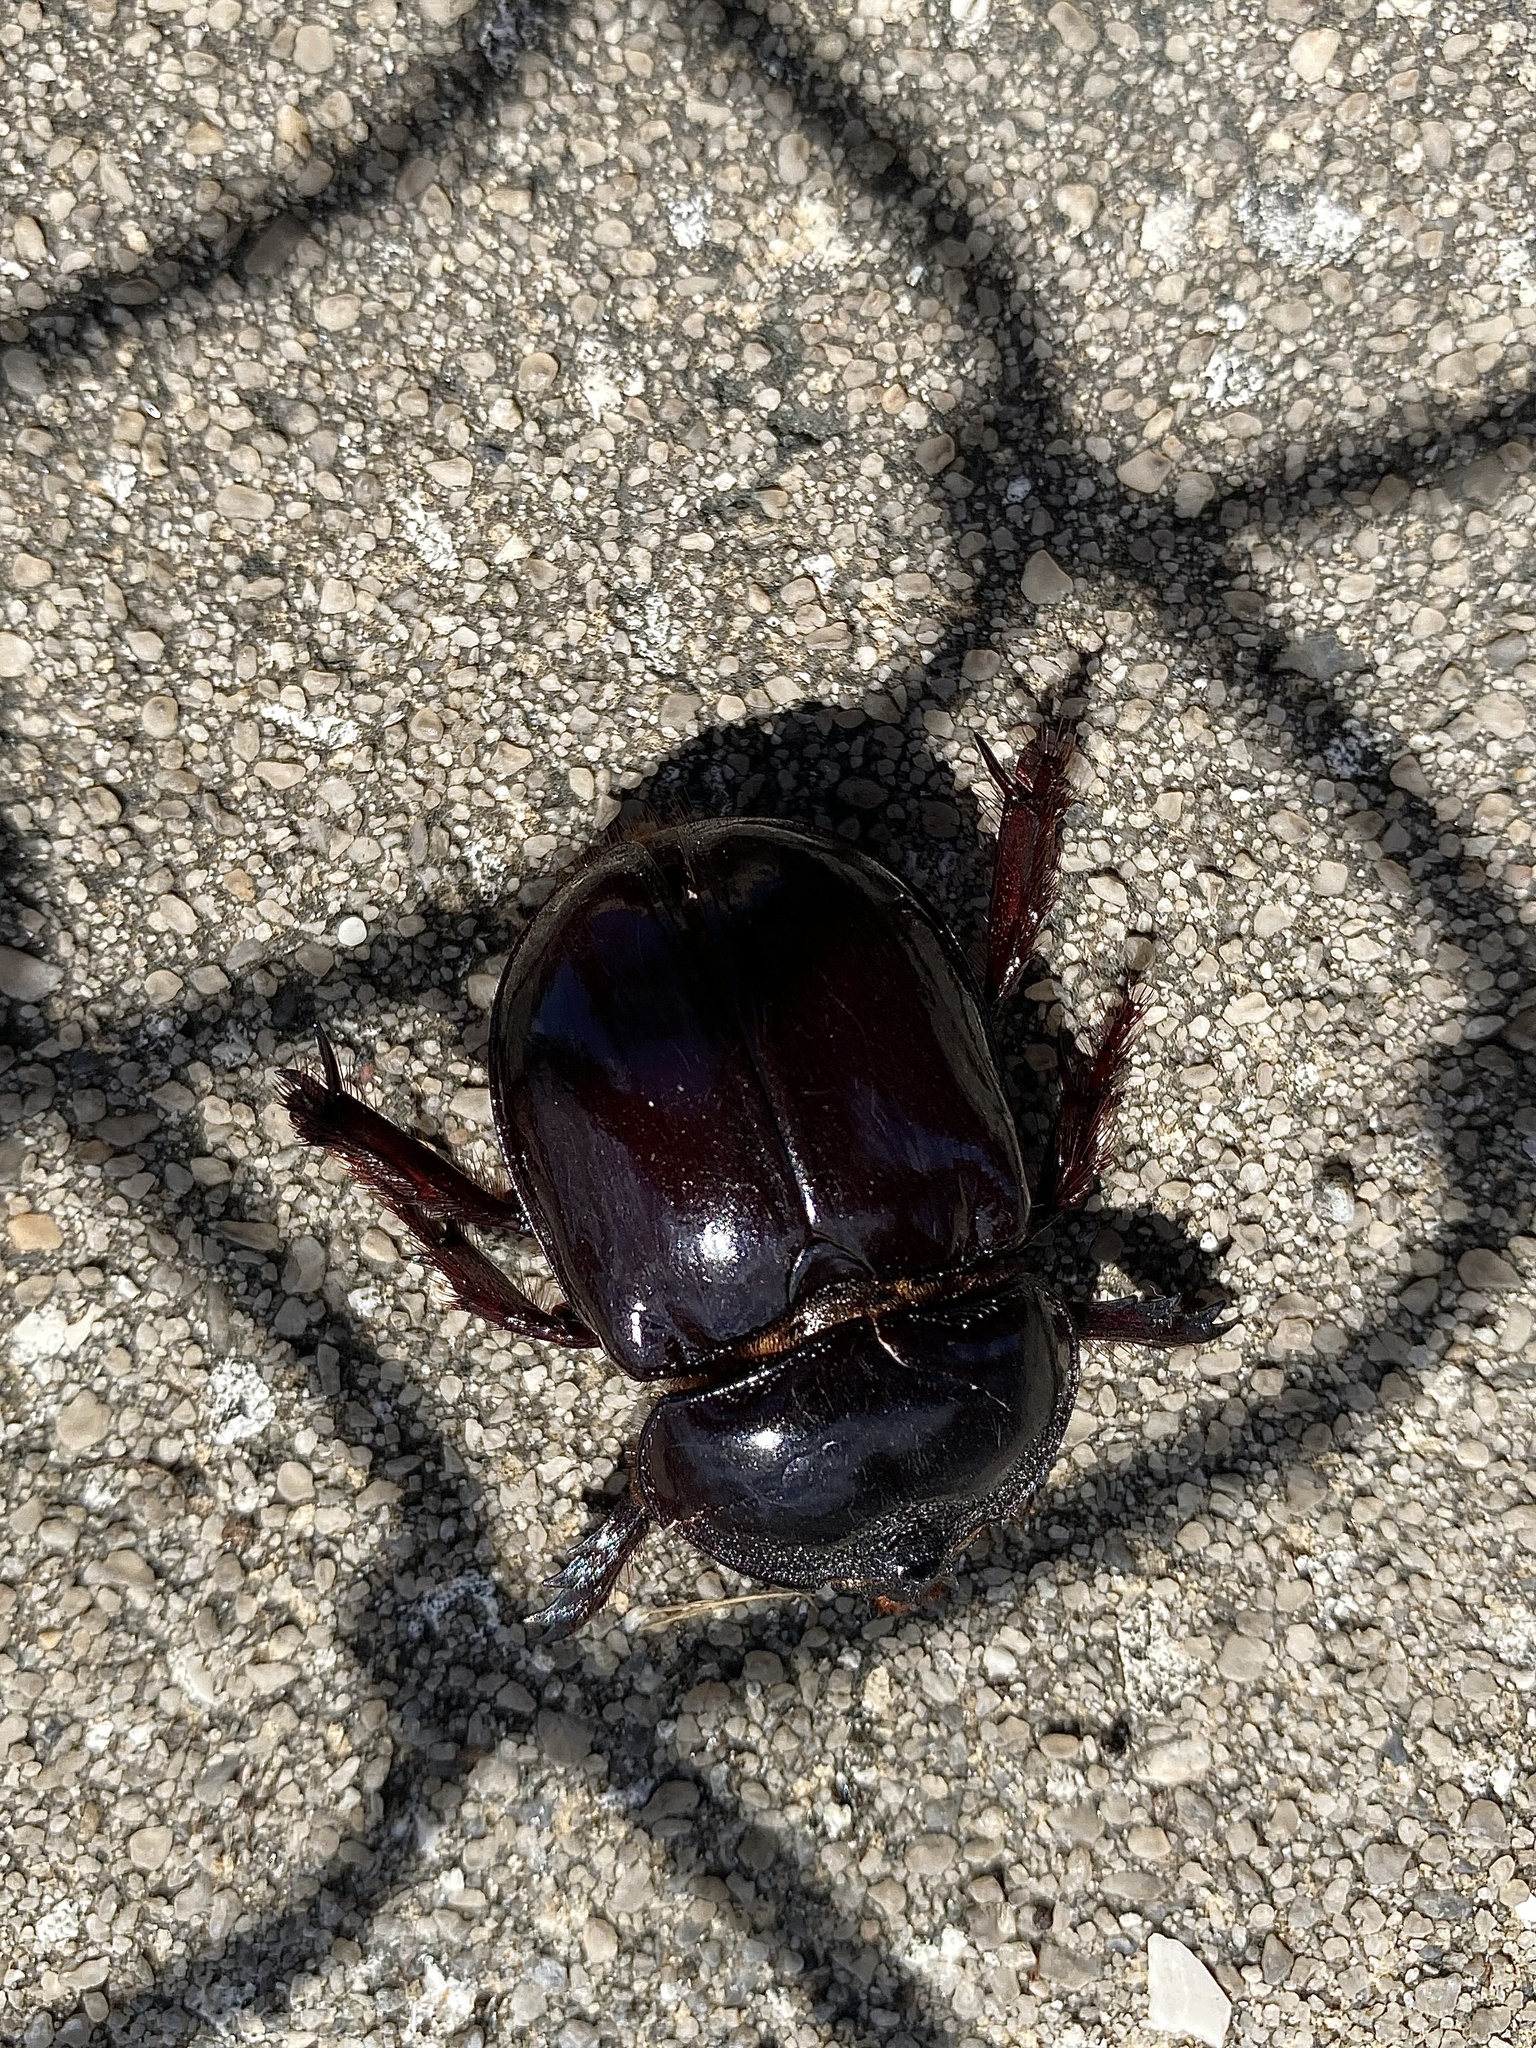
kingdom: Animalia
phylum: Arthropoda
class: Insecta
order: Coleoptera
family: Scarabaeidae
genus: Strategus
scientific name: Strategus antaeus
